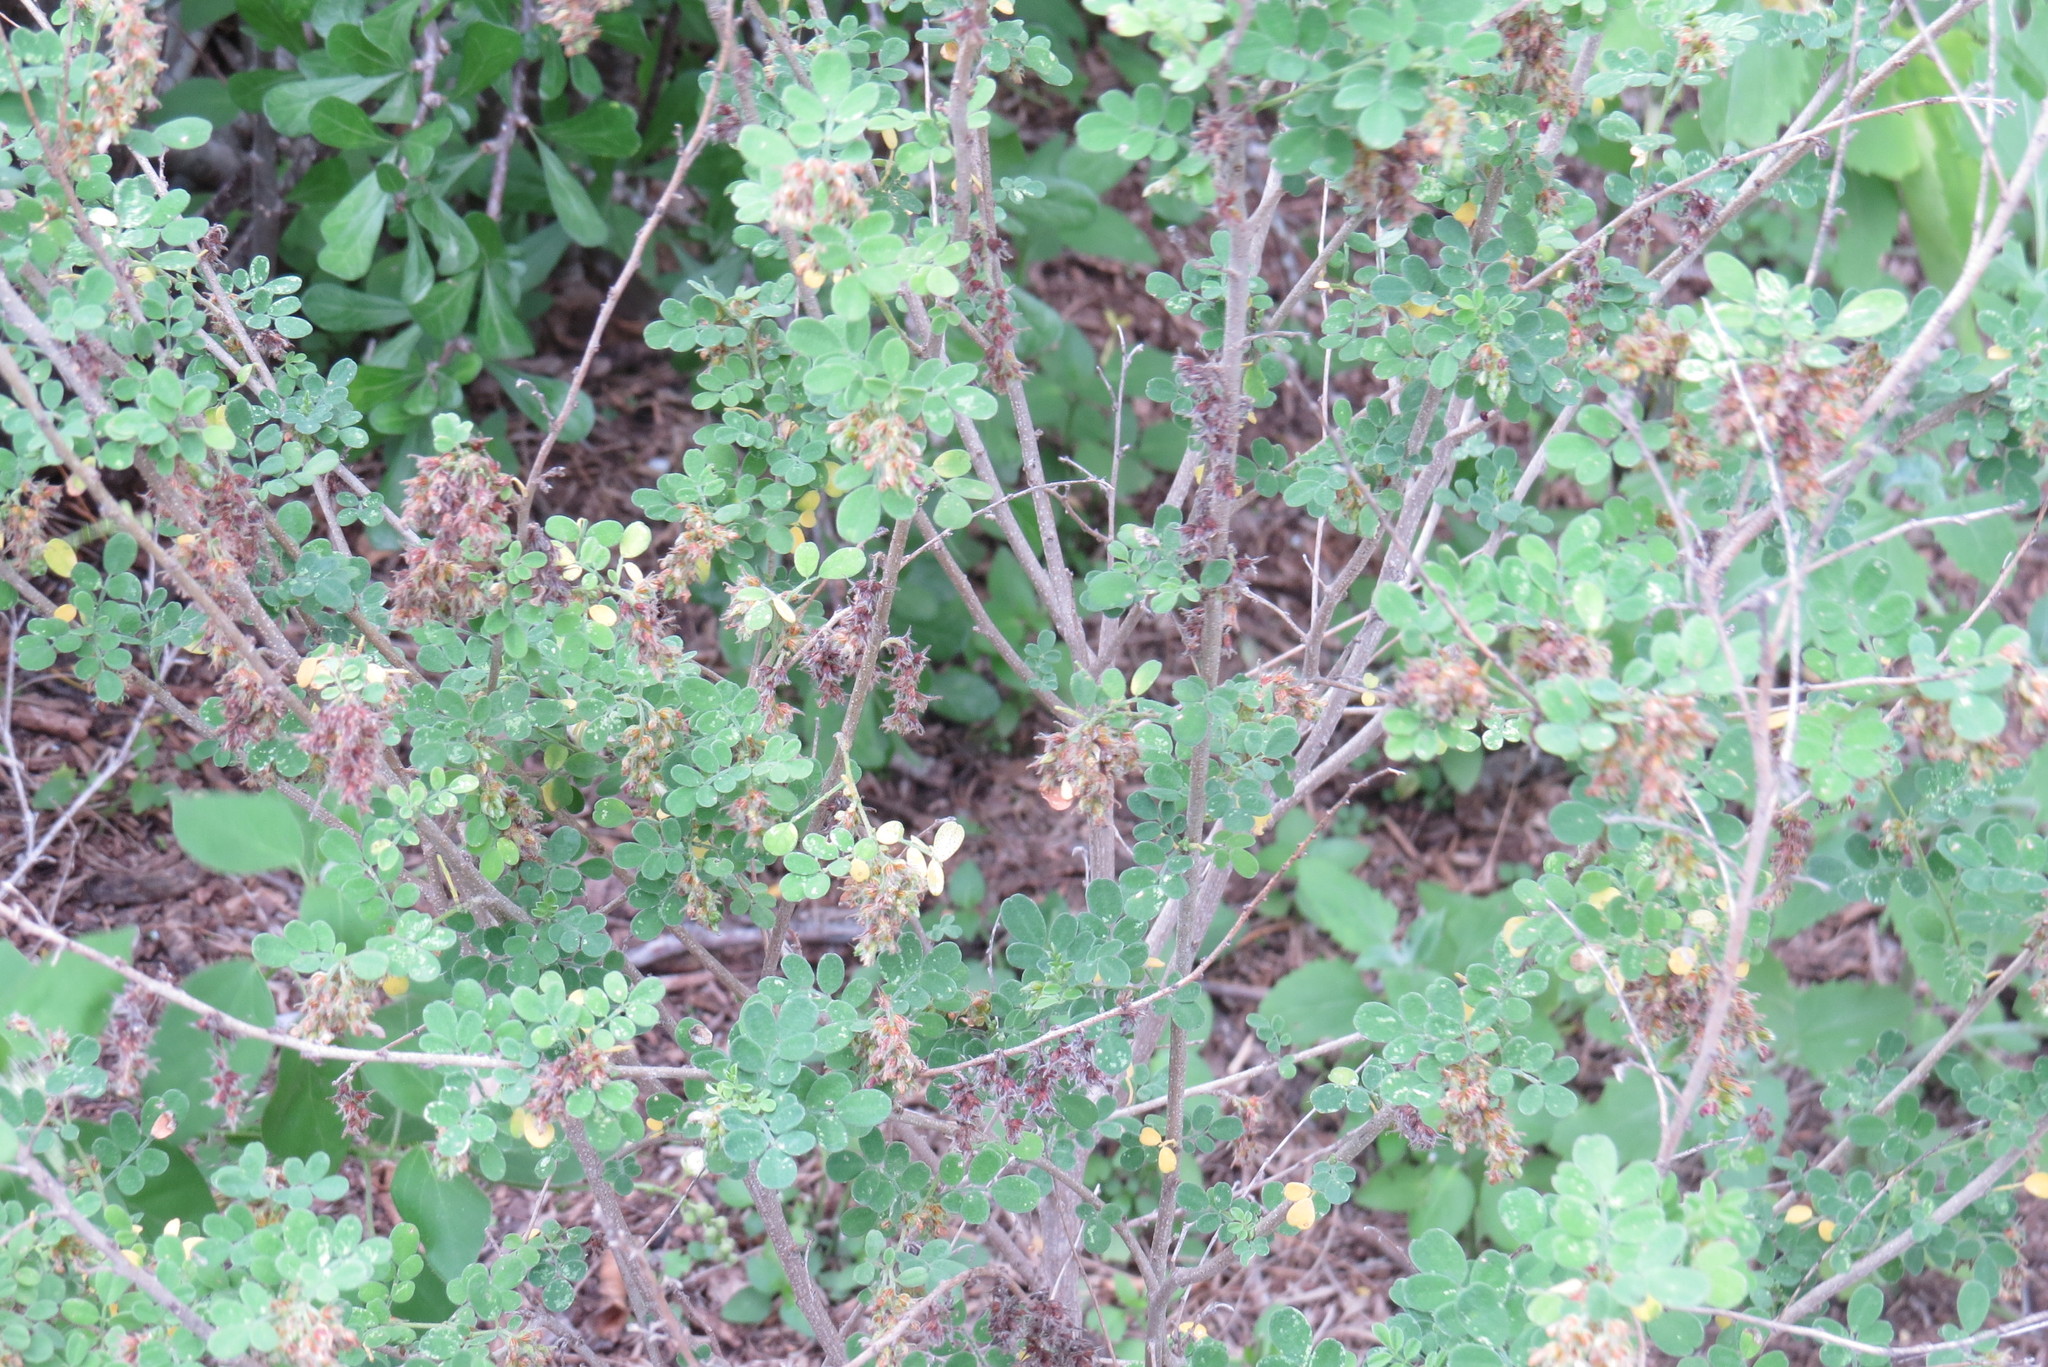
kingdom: Plantae
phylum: Tracheophyta
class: Magnoliopsida
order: Fabales
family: Fabaceae
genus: Dalea
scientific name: Dalea scandens
